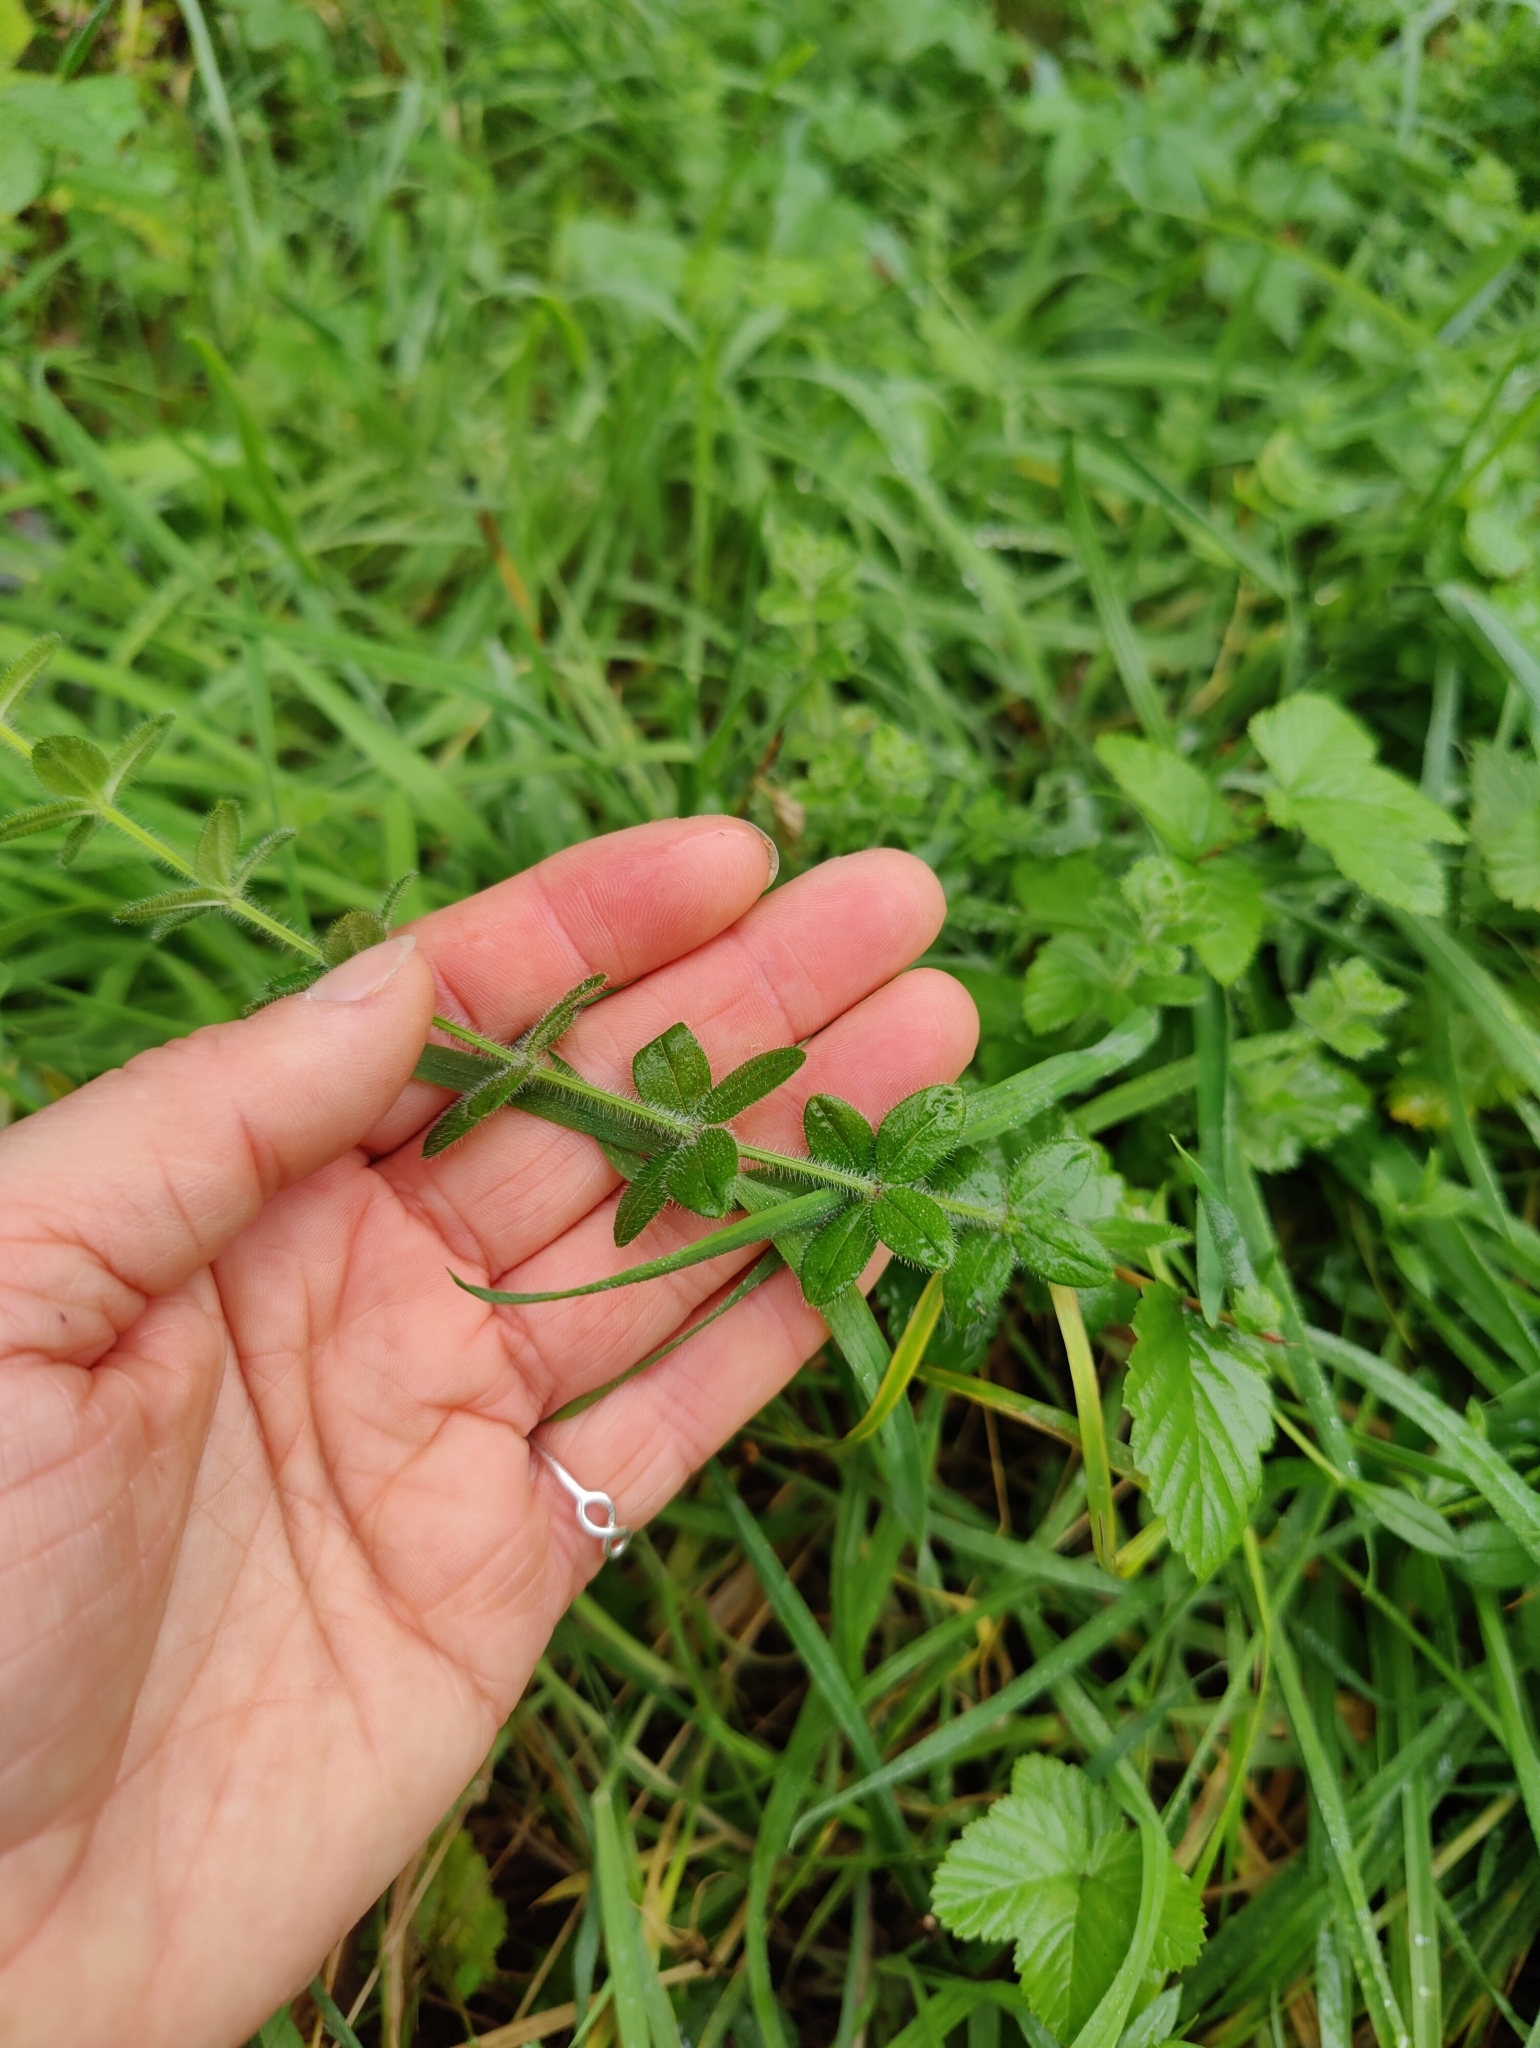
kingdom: Plantae
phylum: Tracheophyta
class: Magnoliopsida
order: Gentianales
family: Rubiaceae
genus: Cruciata
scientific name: Cruciata laevipes
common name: Crosswort
